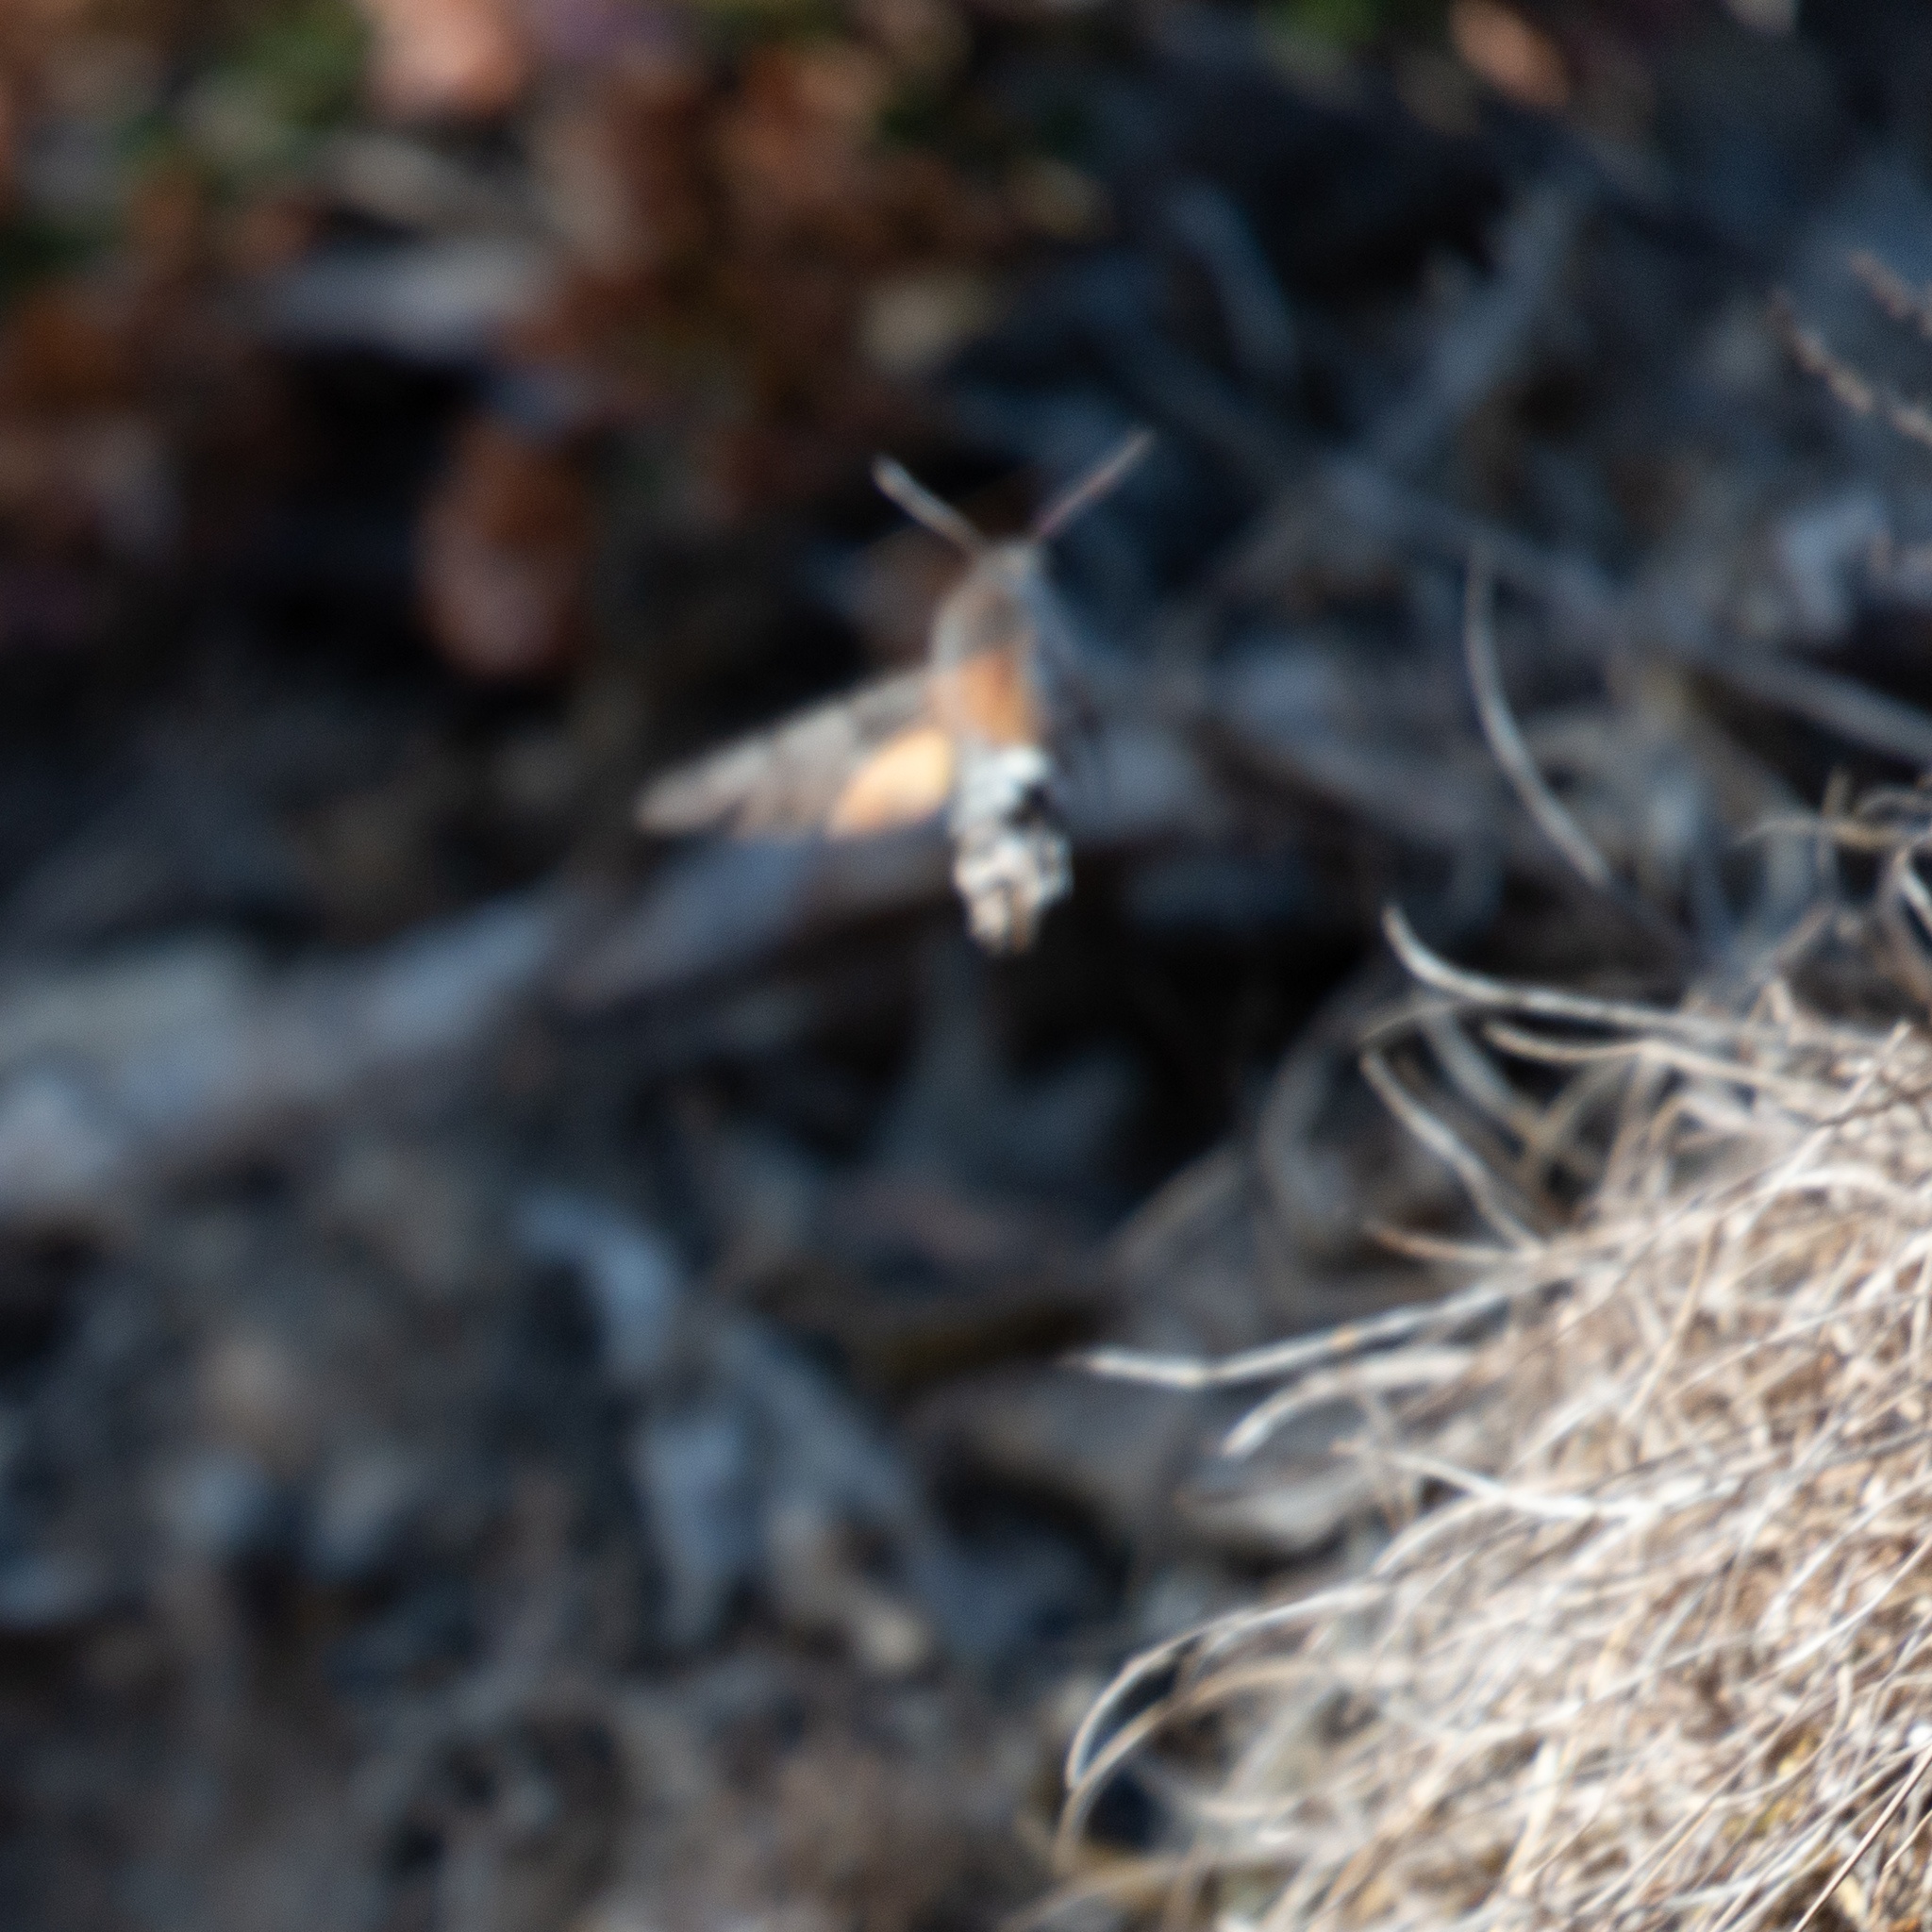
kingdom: Animalia
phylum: Arthropoda
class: Insecta
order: Lepidoptera
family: Sphingidae
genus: Macroglossum
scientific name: Macroglossum stellatarum
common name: Humming-bird hawk-moth
